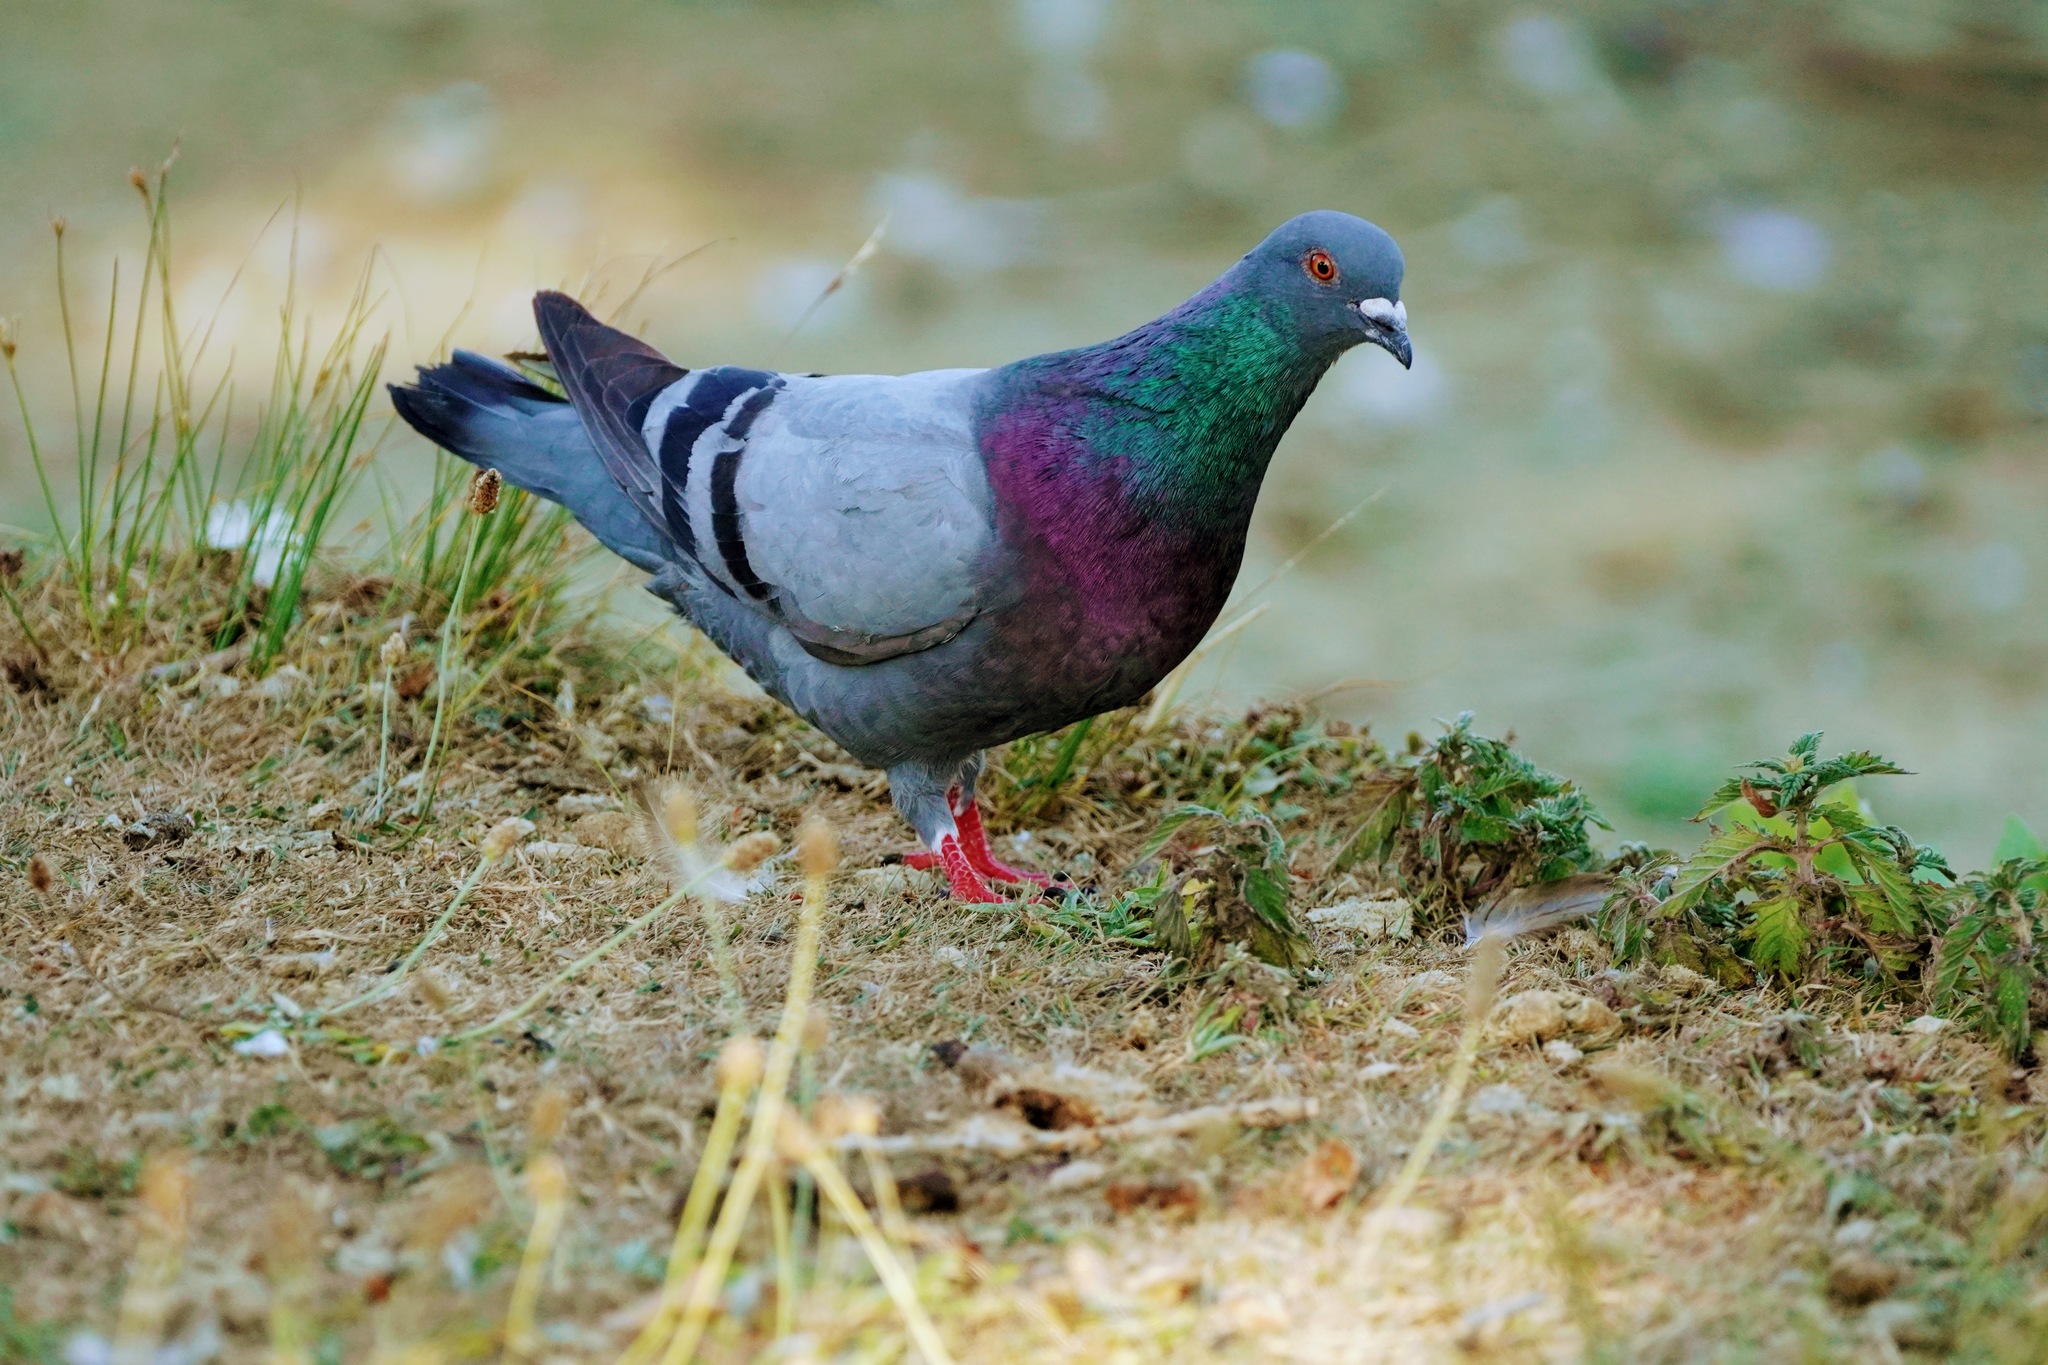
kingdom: Animalia
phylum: Chordata
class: Aves
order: Columbiformes
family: Columbidae
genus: Columba
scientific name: Columba livia
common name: Rock pigeon
